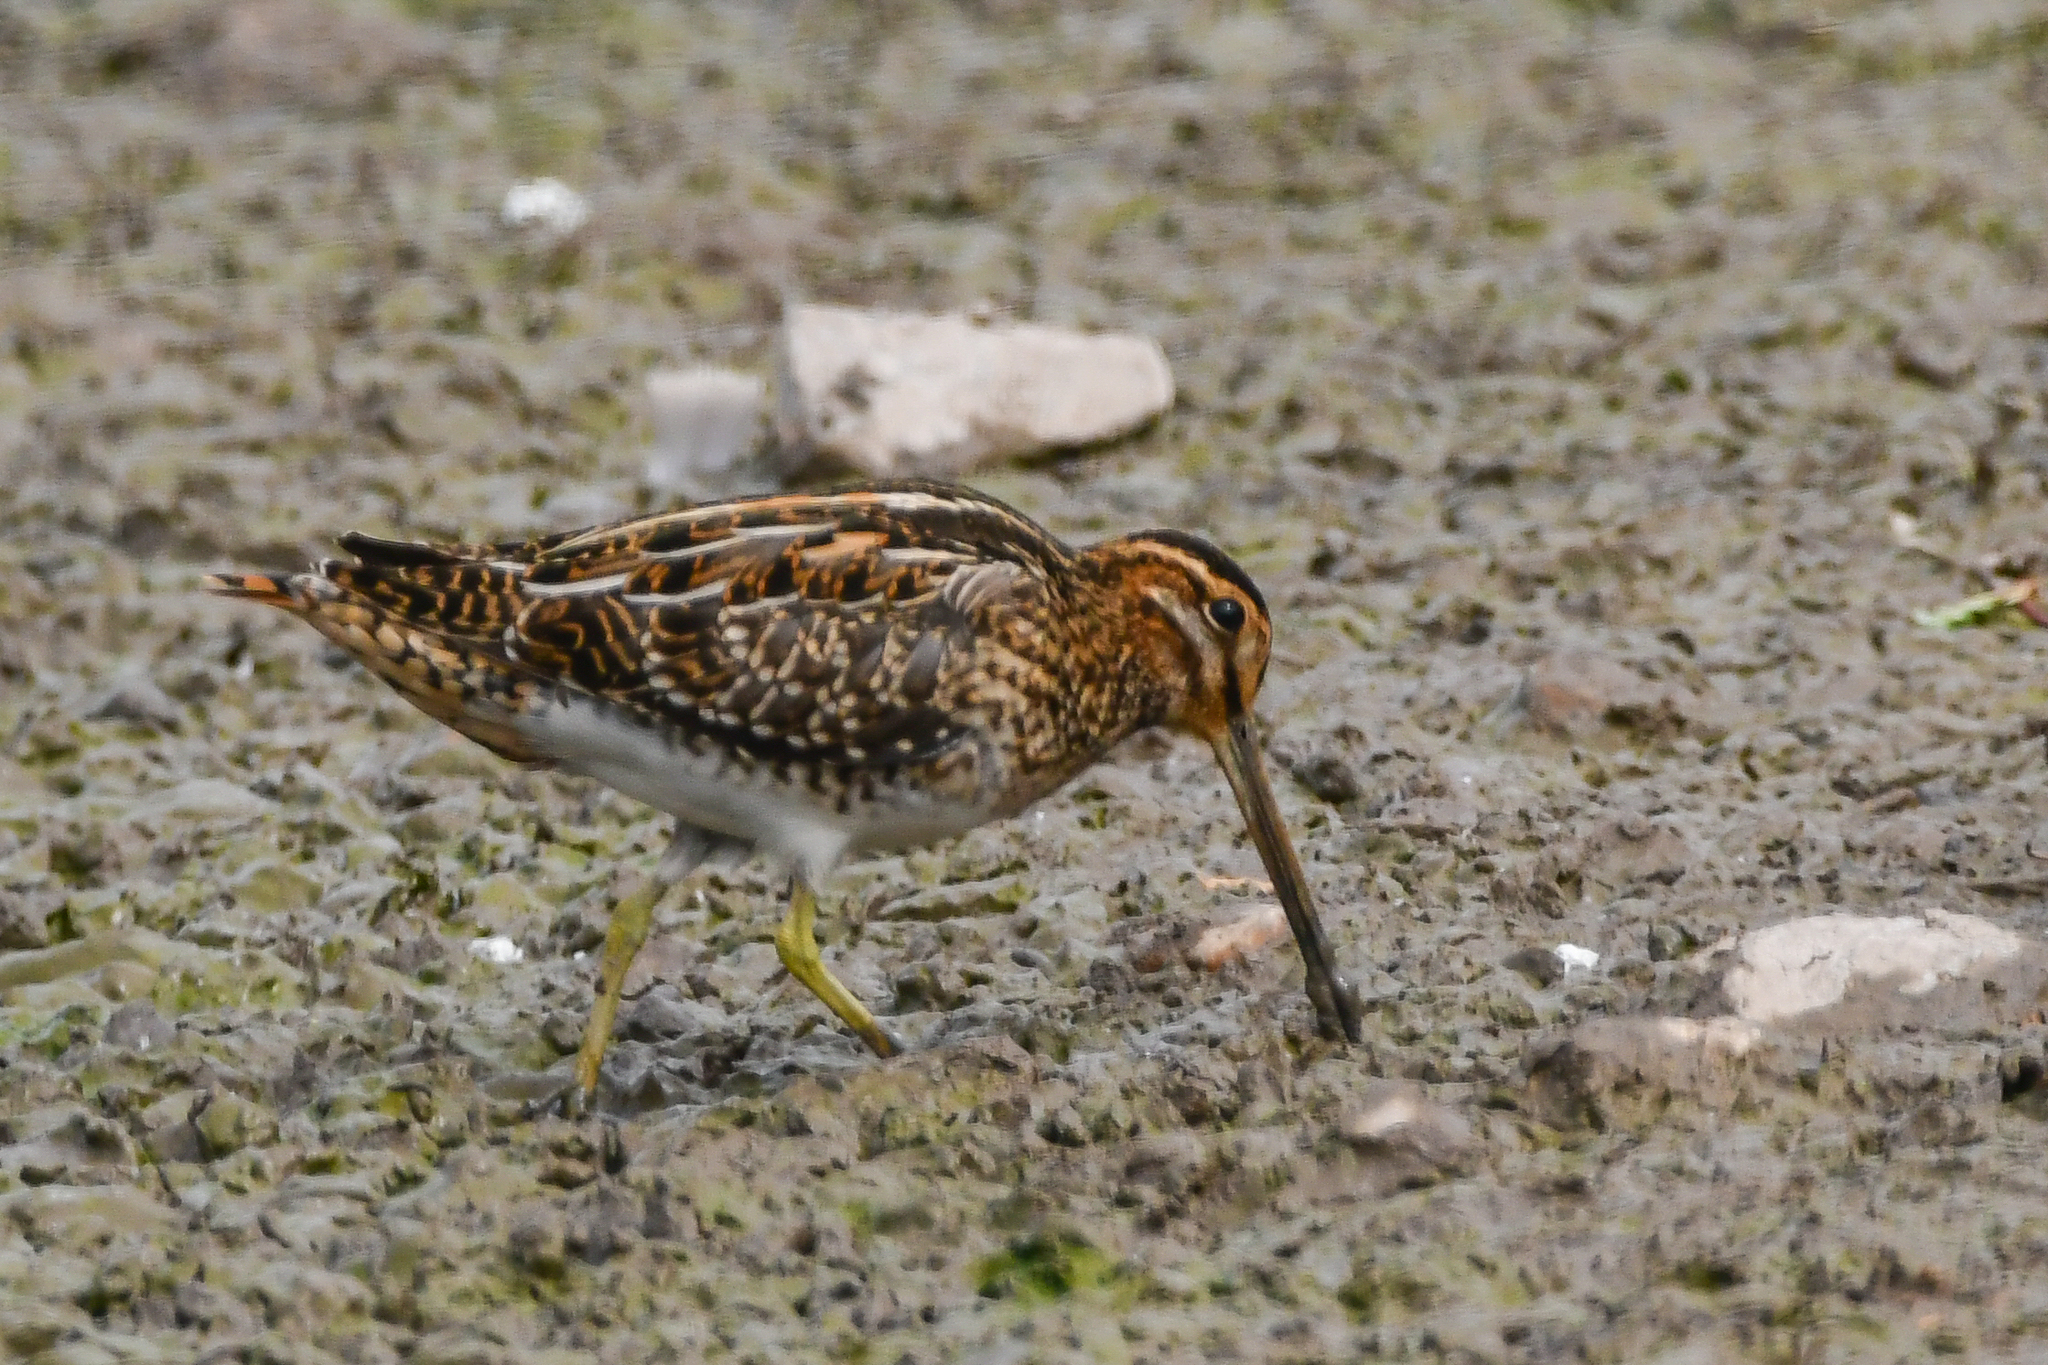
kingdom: Animalia
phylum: Chordata
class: Aves
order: Charadriiformes
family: Scolopacidae
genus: Gallinago
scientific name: Gallinago gallinago
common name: Common snipe
